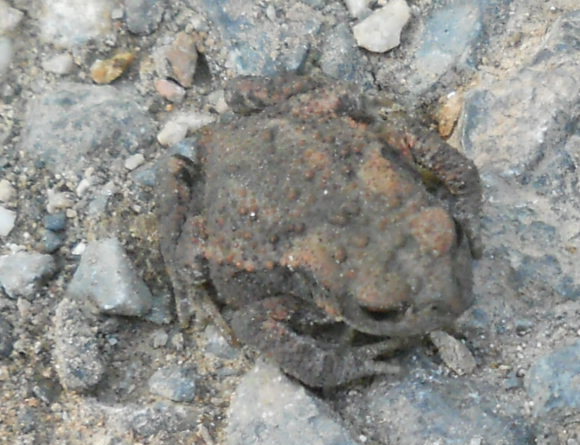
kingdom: Animalia
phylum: Chordata
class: Amphibia
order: Anura
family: Bufonidae
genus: Bufo
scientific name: Bufo bufo
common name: Common toad
